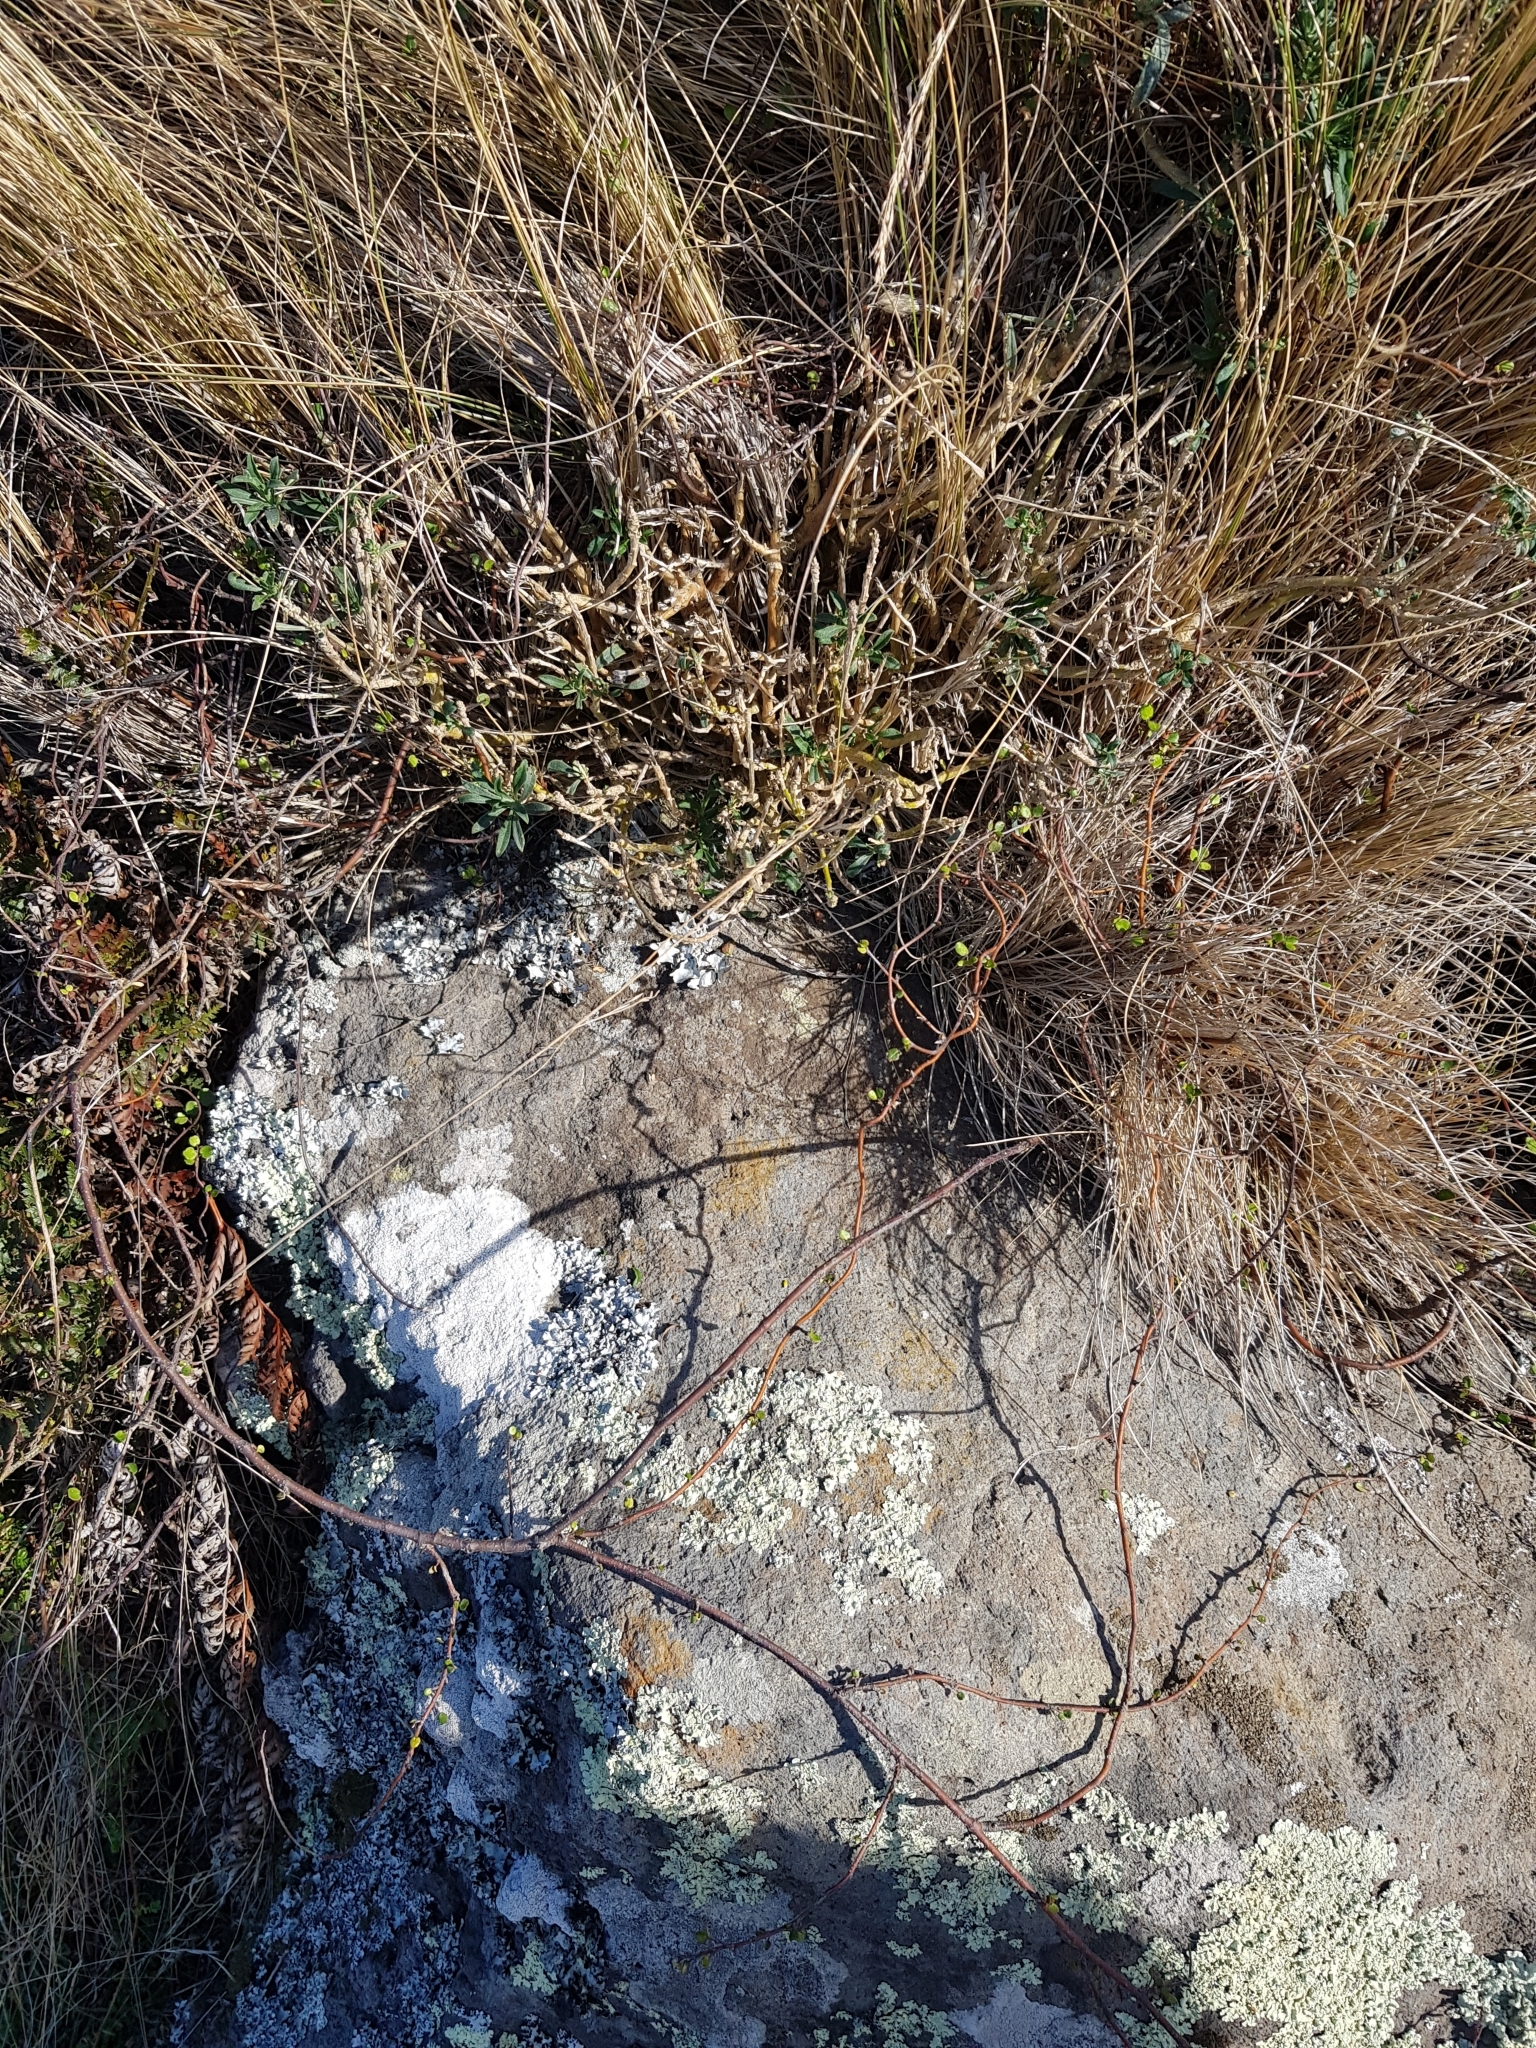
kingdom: Plantae
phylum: Tracheophyta
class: Magnoliopsida
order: Brassicales
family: Brassicaceae
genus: Erysimum
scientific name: Erysimum cheiri
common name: Wallflower
